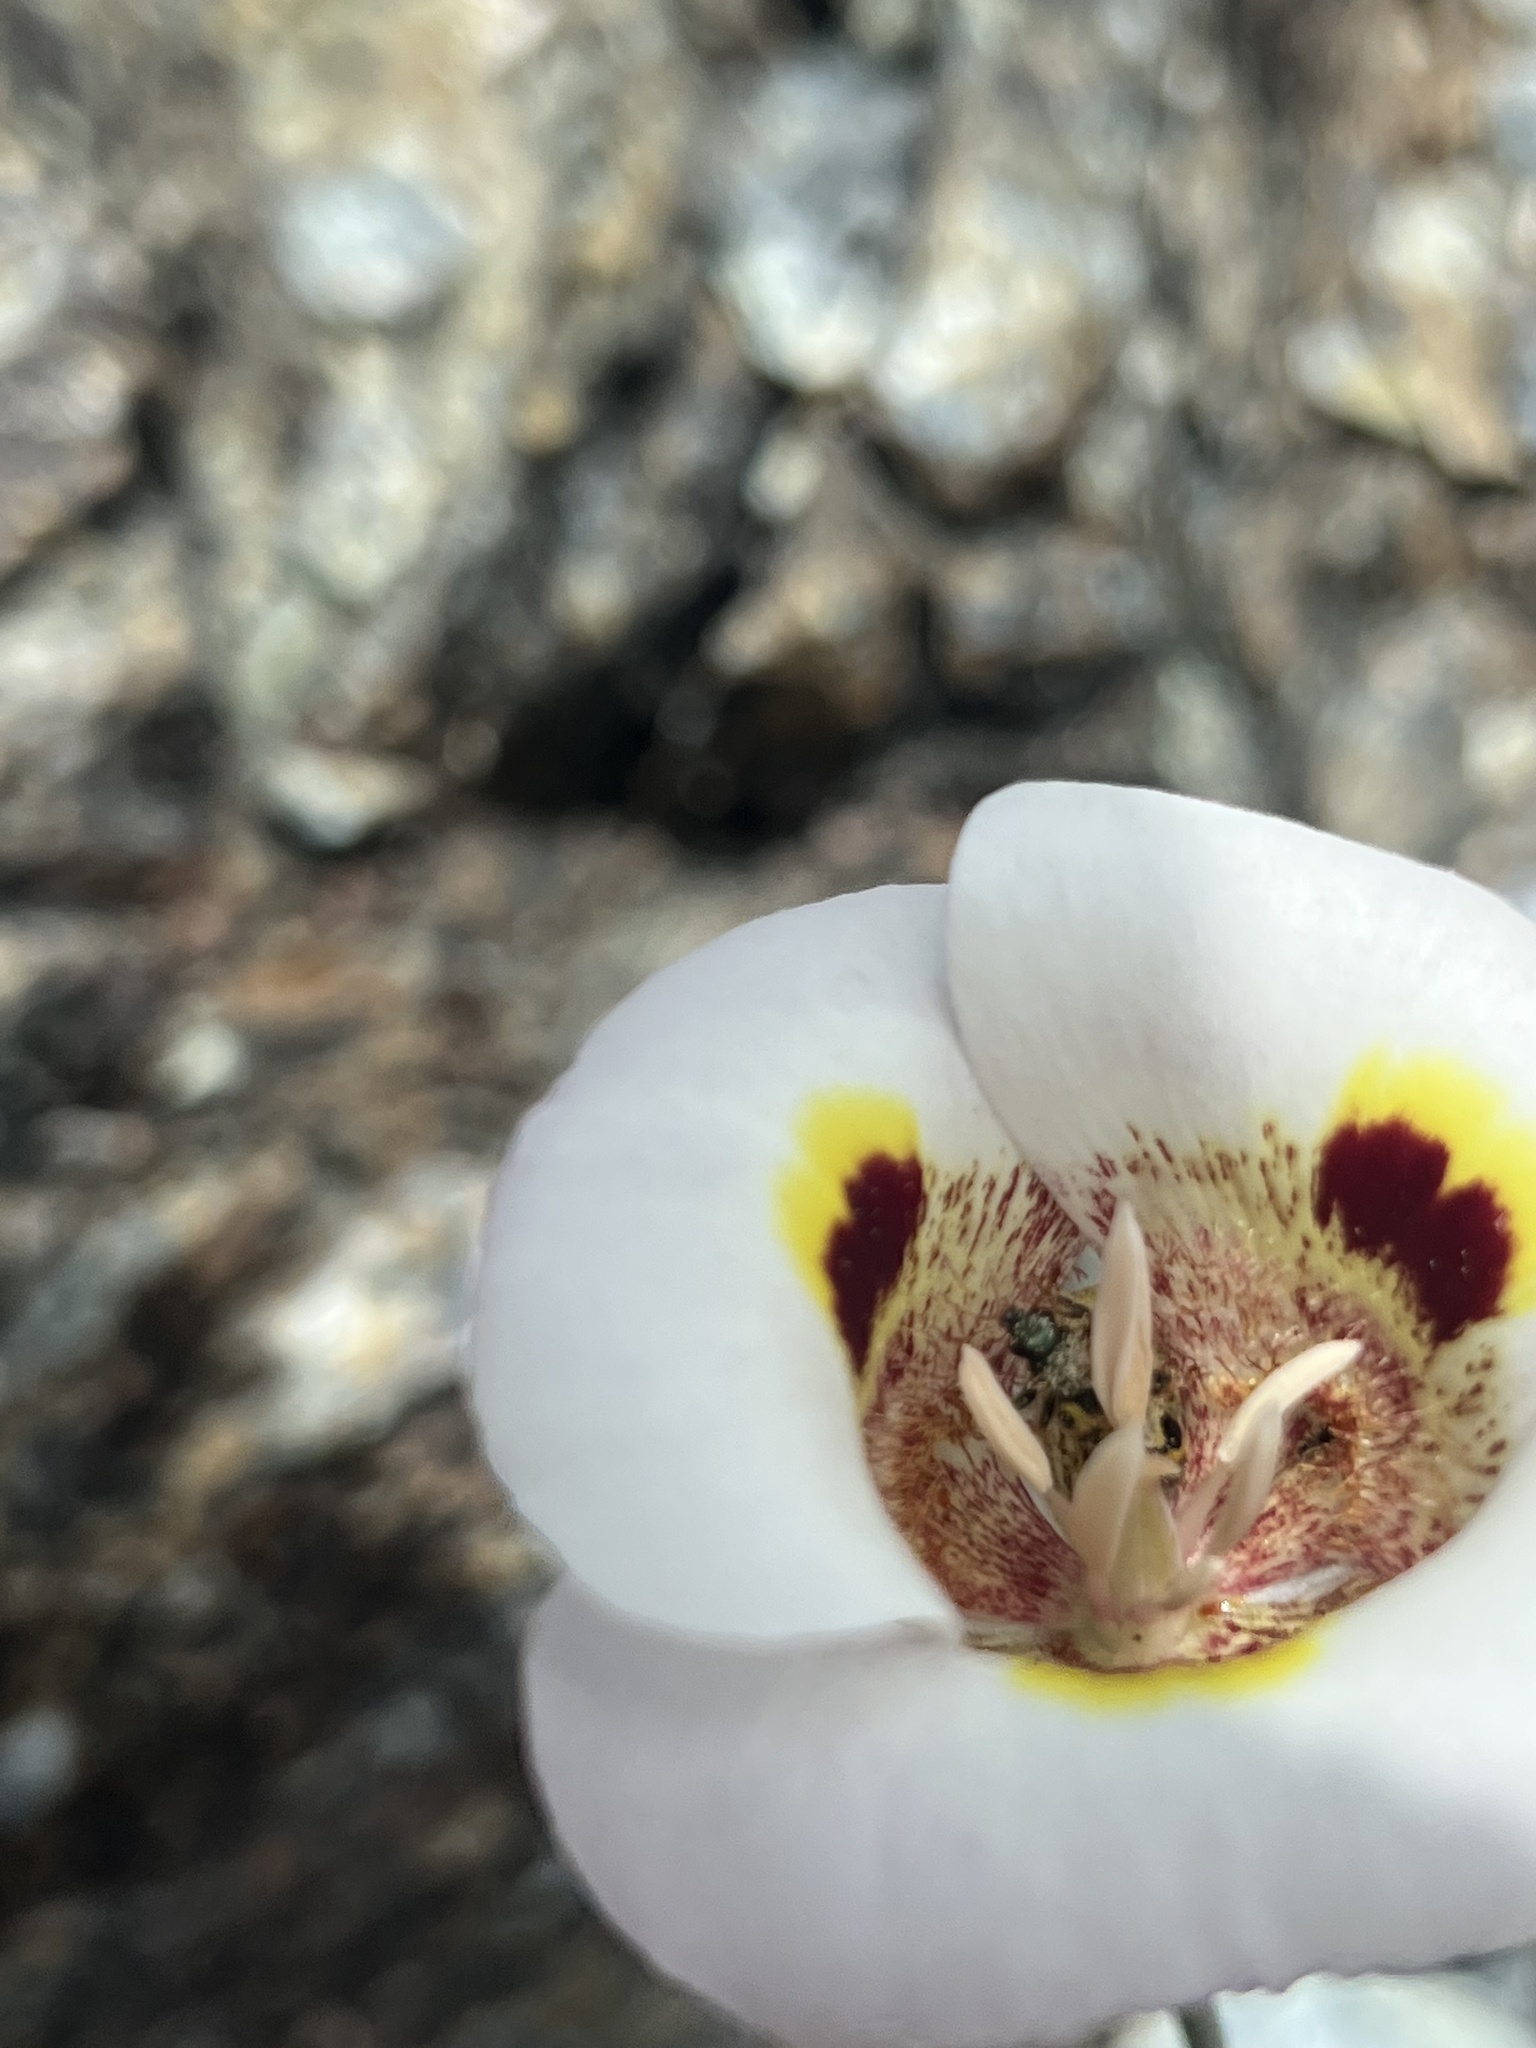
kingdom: Plantae
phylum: Tracheophyta
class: Liliopsida
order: Liliales
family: Liliaceae
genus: Calochortus
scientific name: Calochortus superbus
